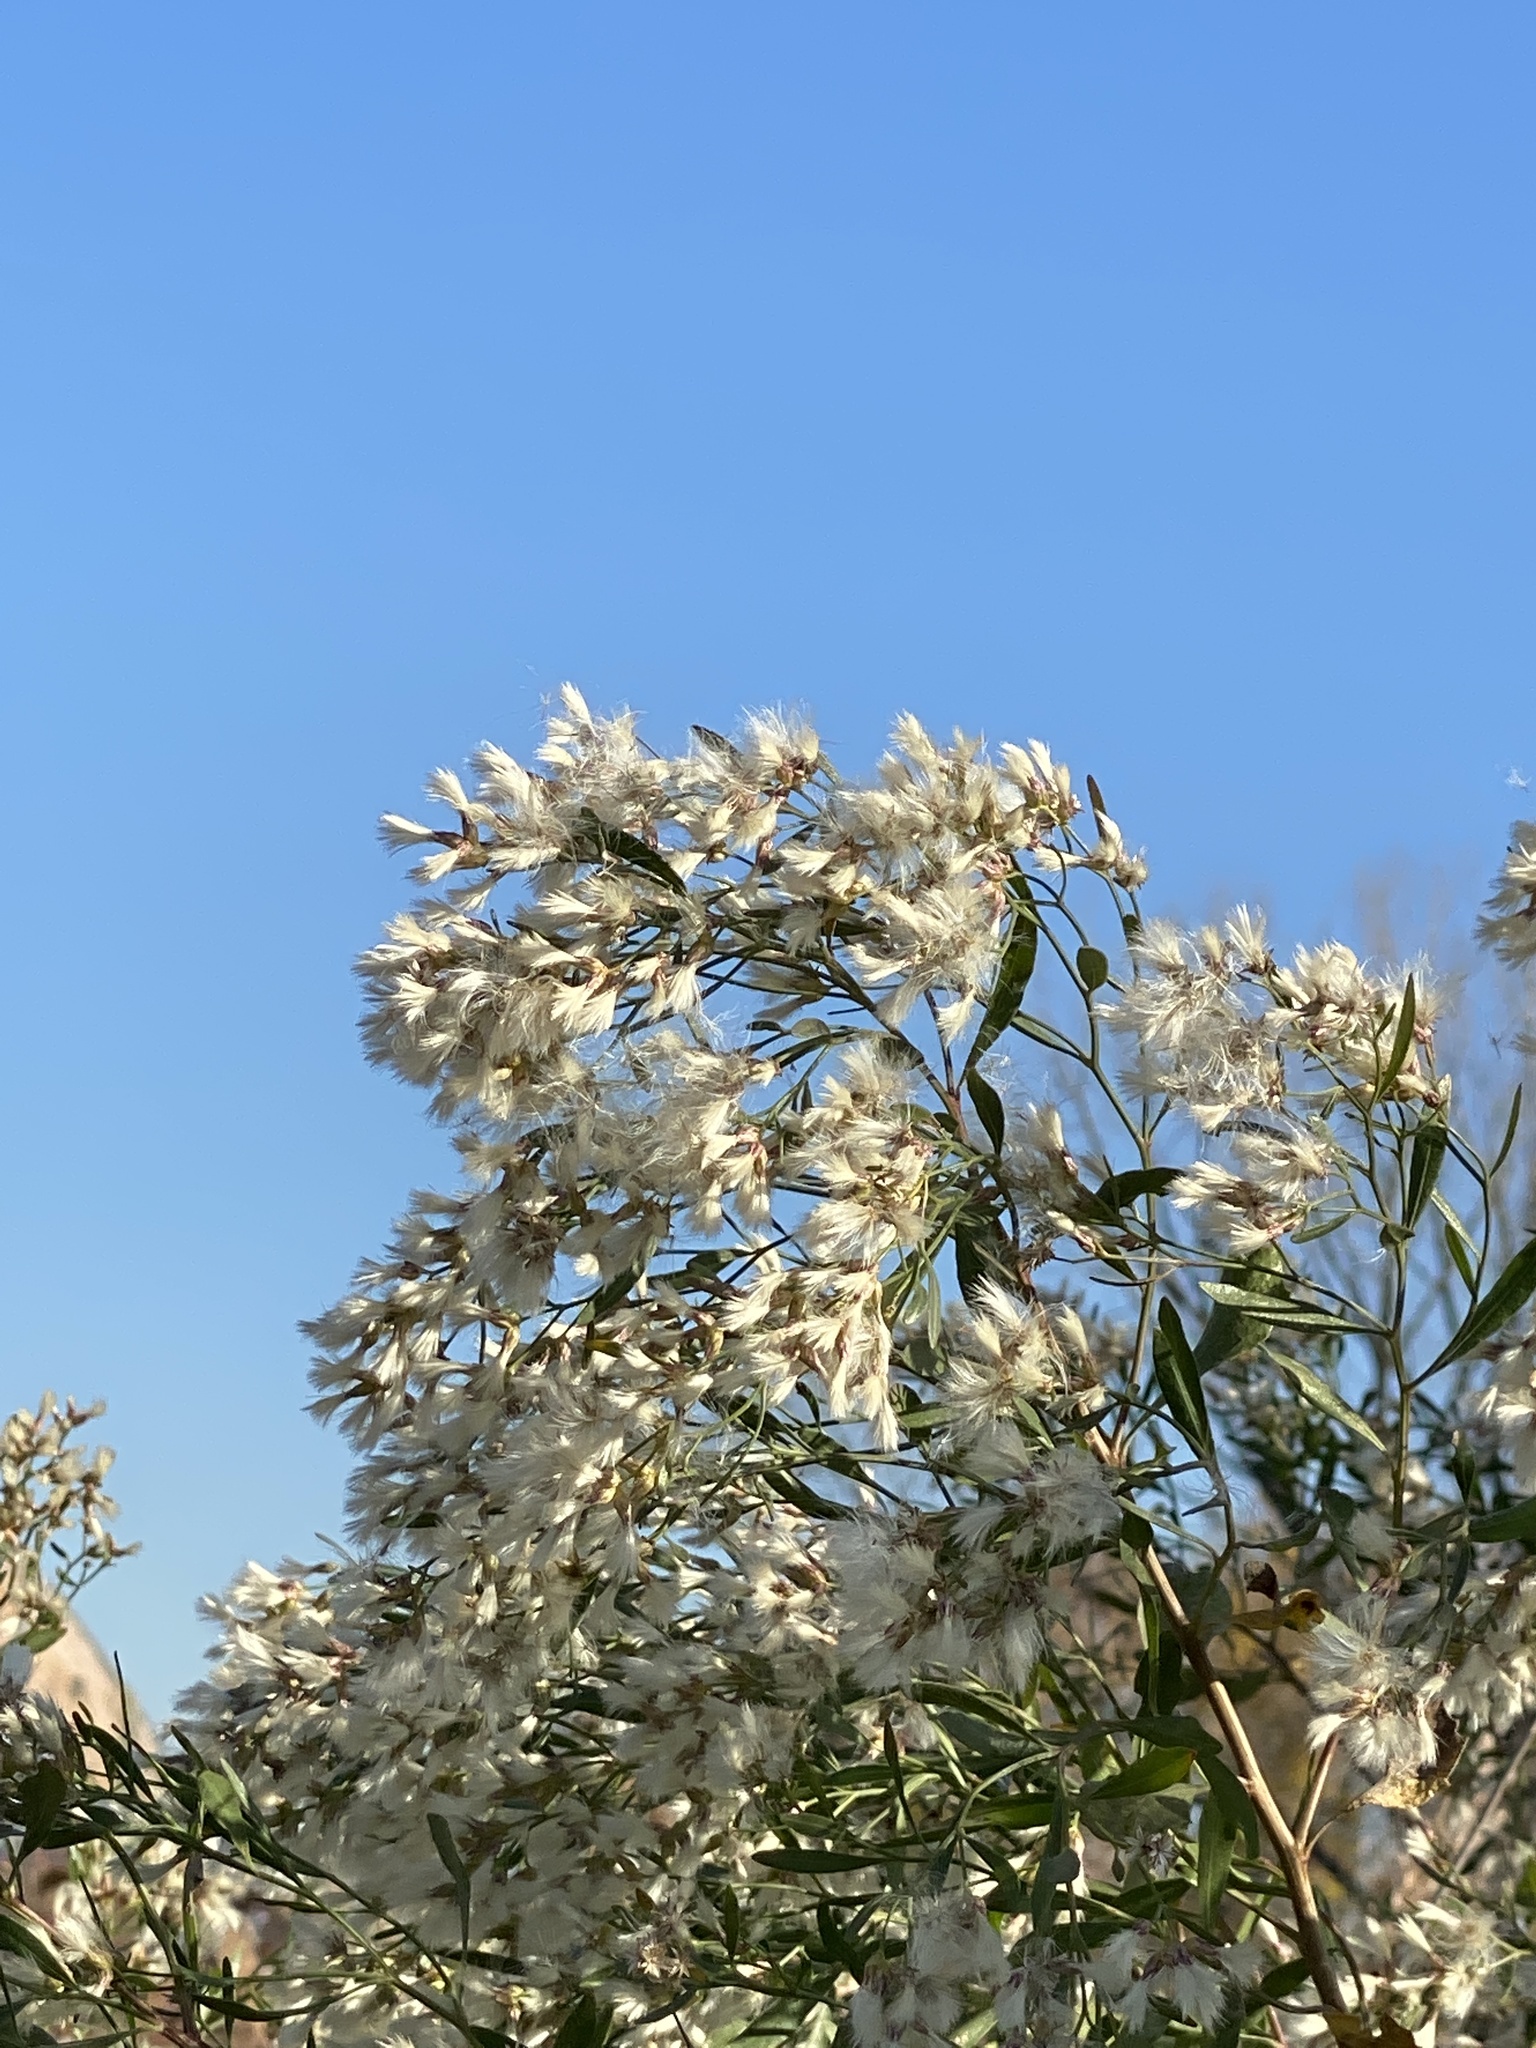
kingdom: Plantae
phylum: Tracheophyta
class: Magnoliopsida
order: Asterales
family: Asteraceae
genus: Baccharis
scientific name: Baccharis halimifolia
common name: Eastern baccharis
